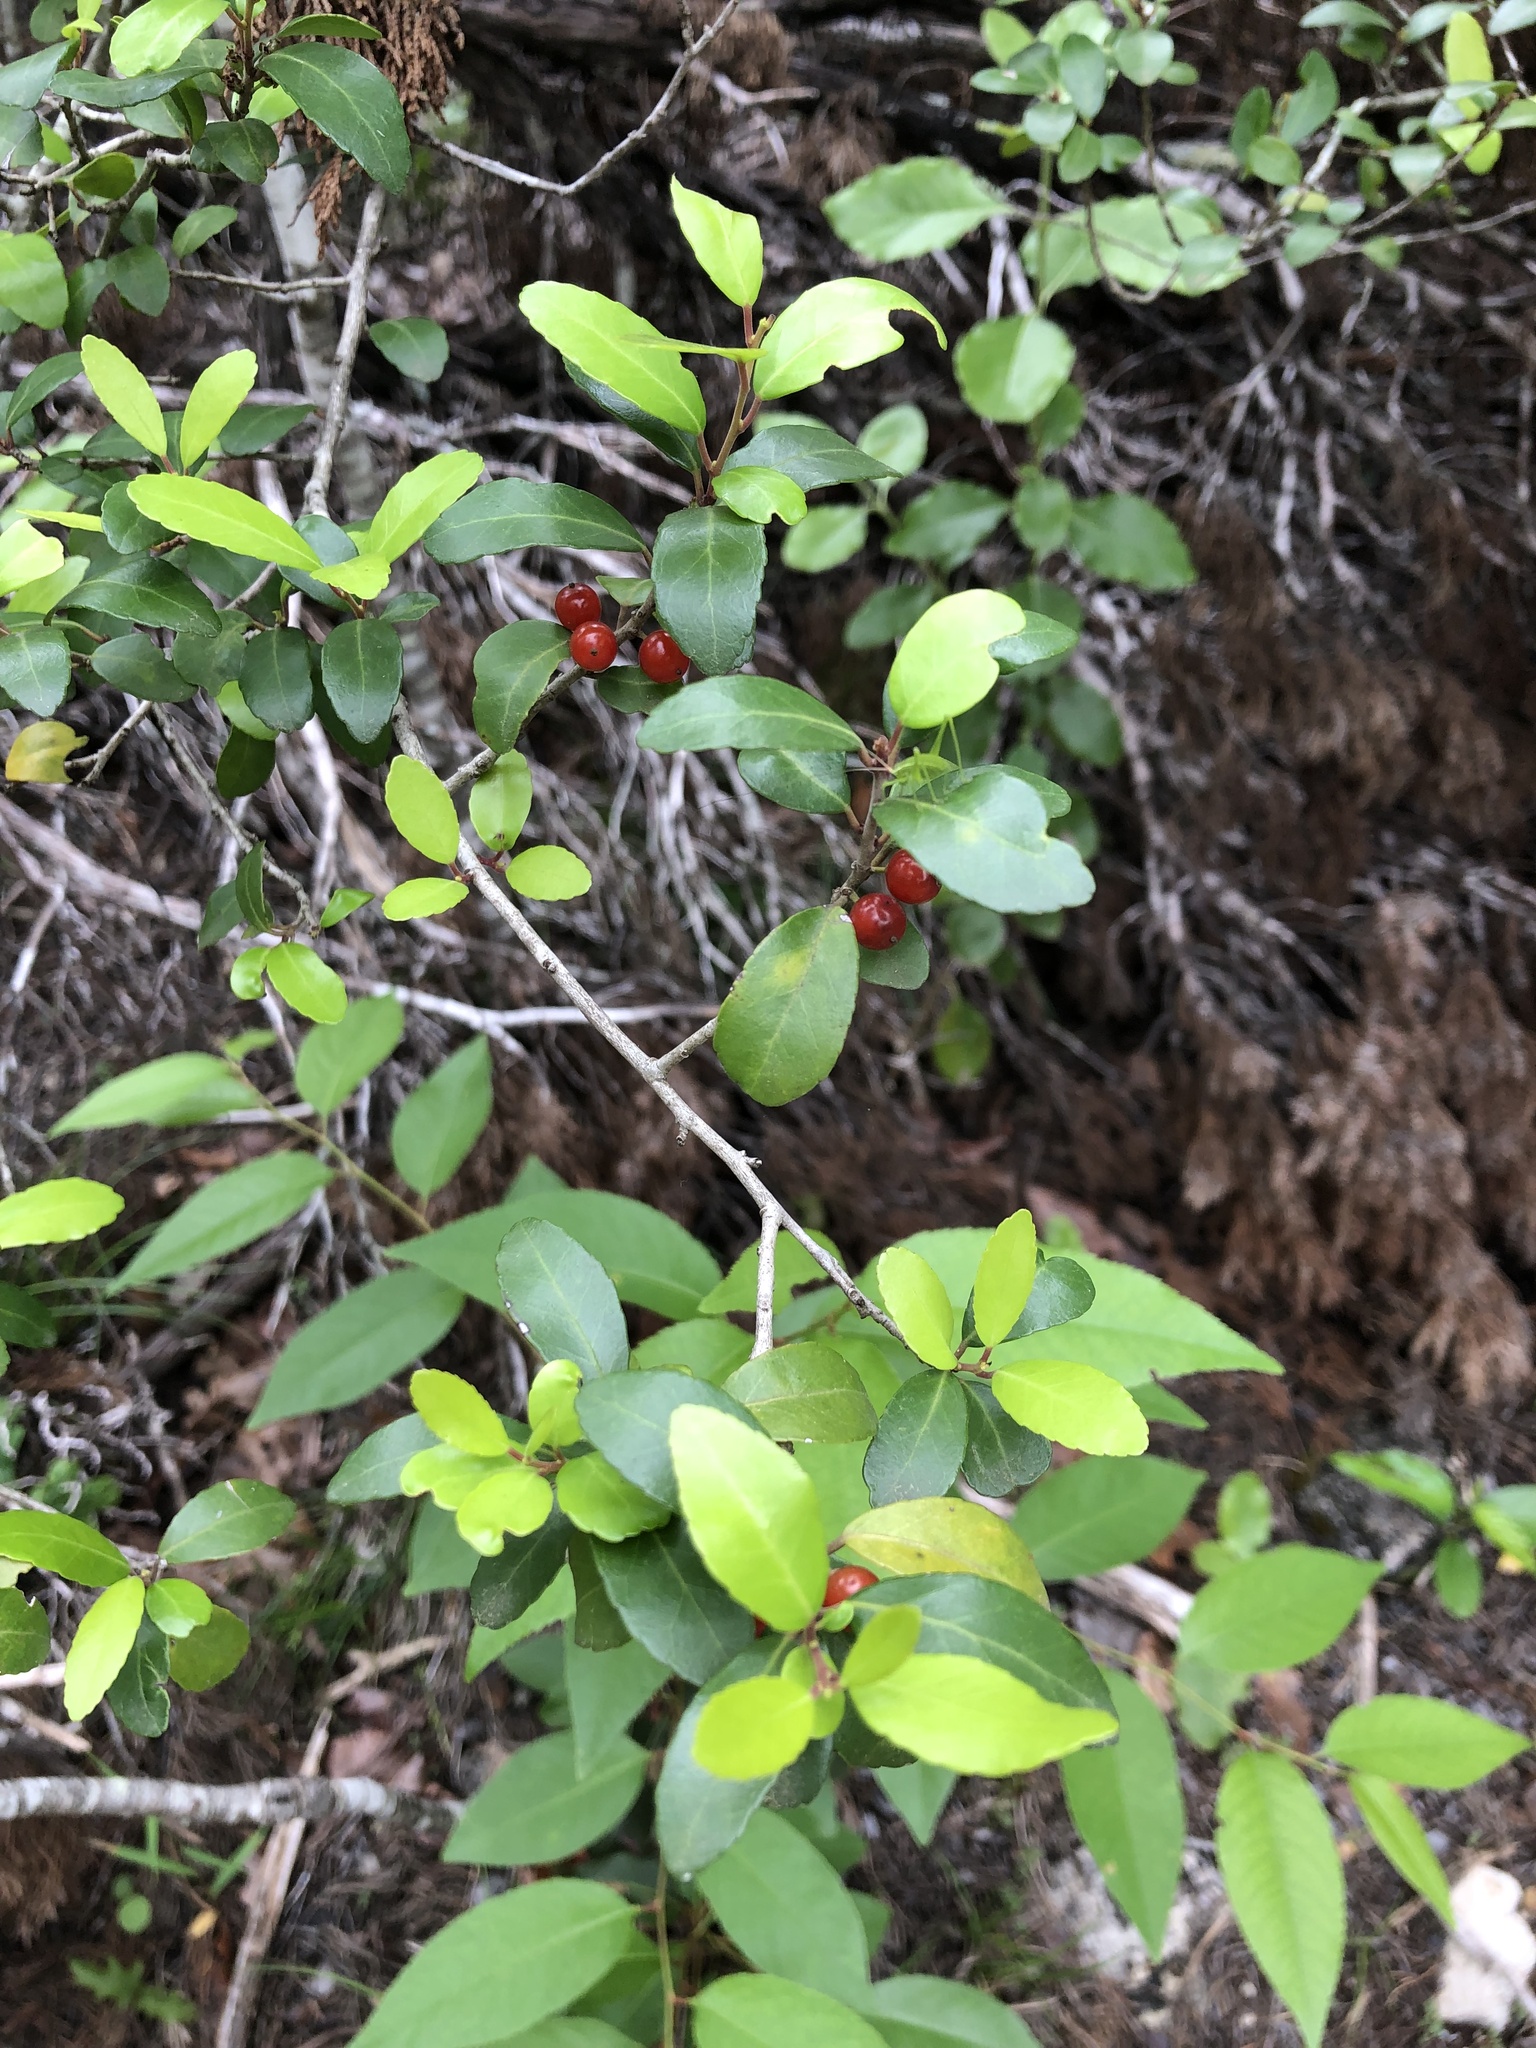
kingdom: Plantae
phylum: Tracheophyta
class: Magnoliopsida
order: Aquifoliales
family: Aquifoliaceae
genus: Ilex
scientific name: Ilex vomitoria
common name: Yaupon holly
